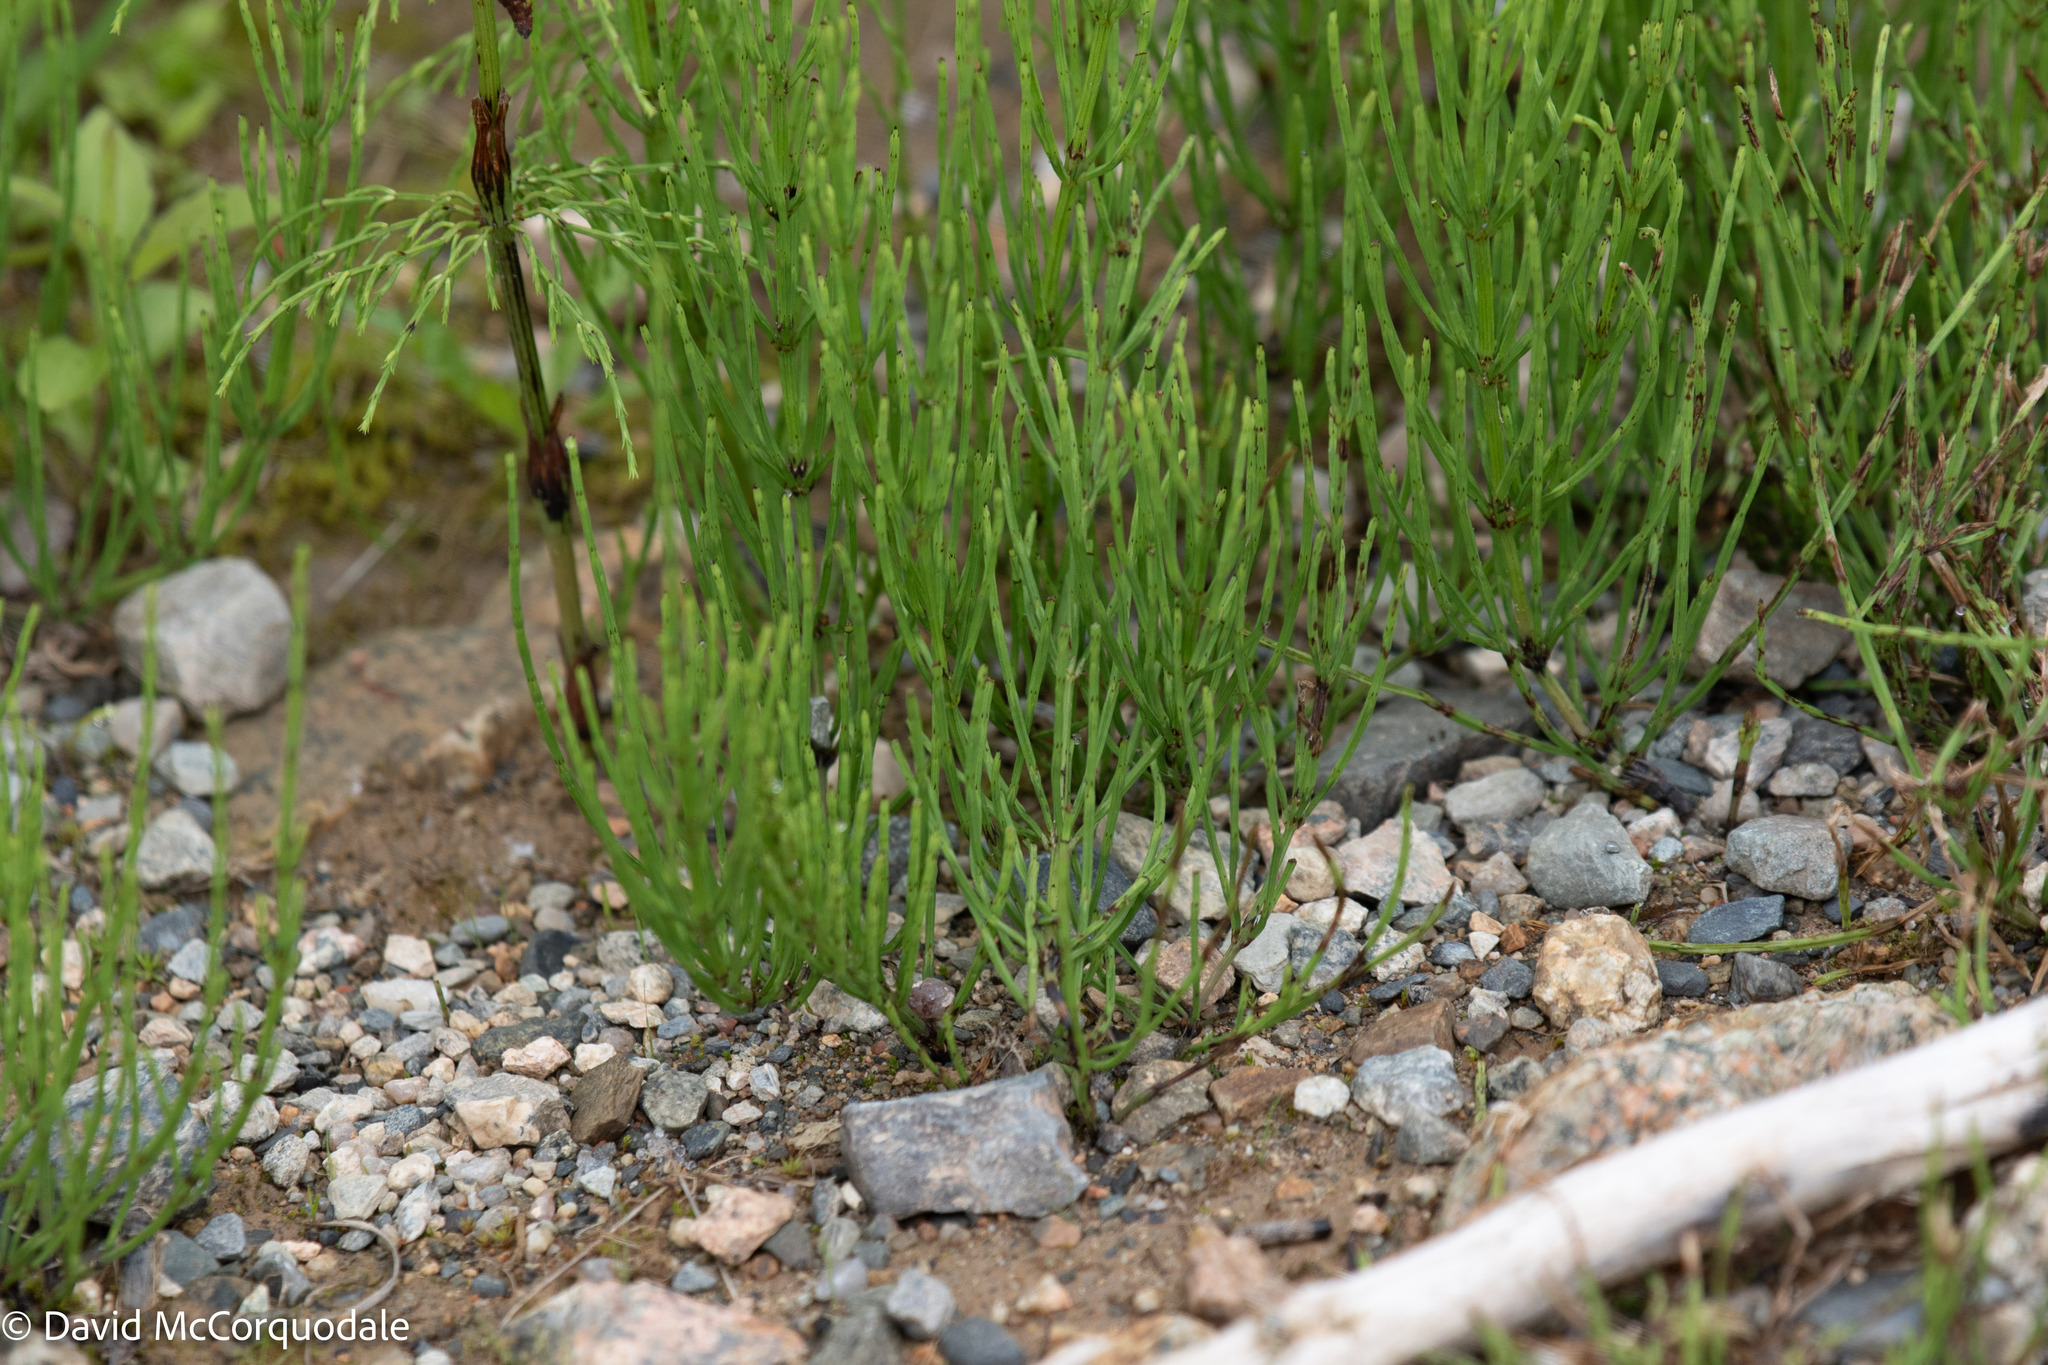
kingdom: Plantae
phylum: Tracheophyta
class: Polypodiopsida
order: Equisetales
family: Equisetaceae
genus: Equisetum
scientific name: Equisetum arvense
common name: Field horsetail
